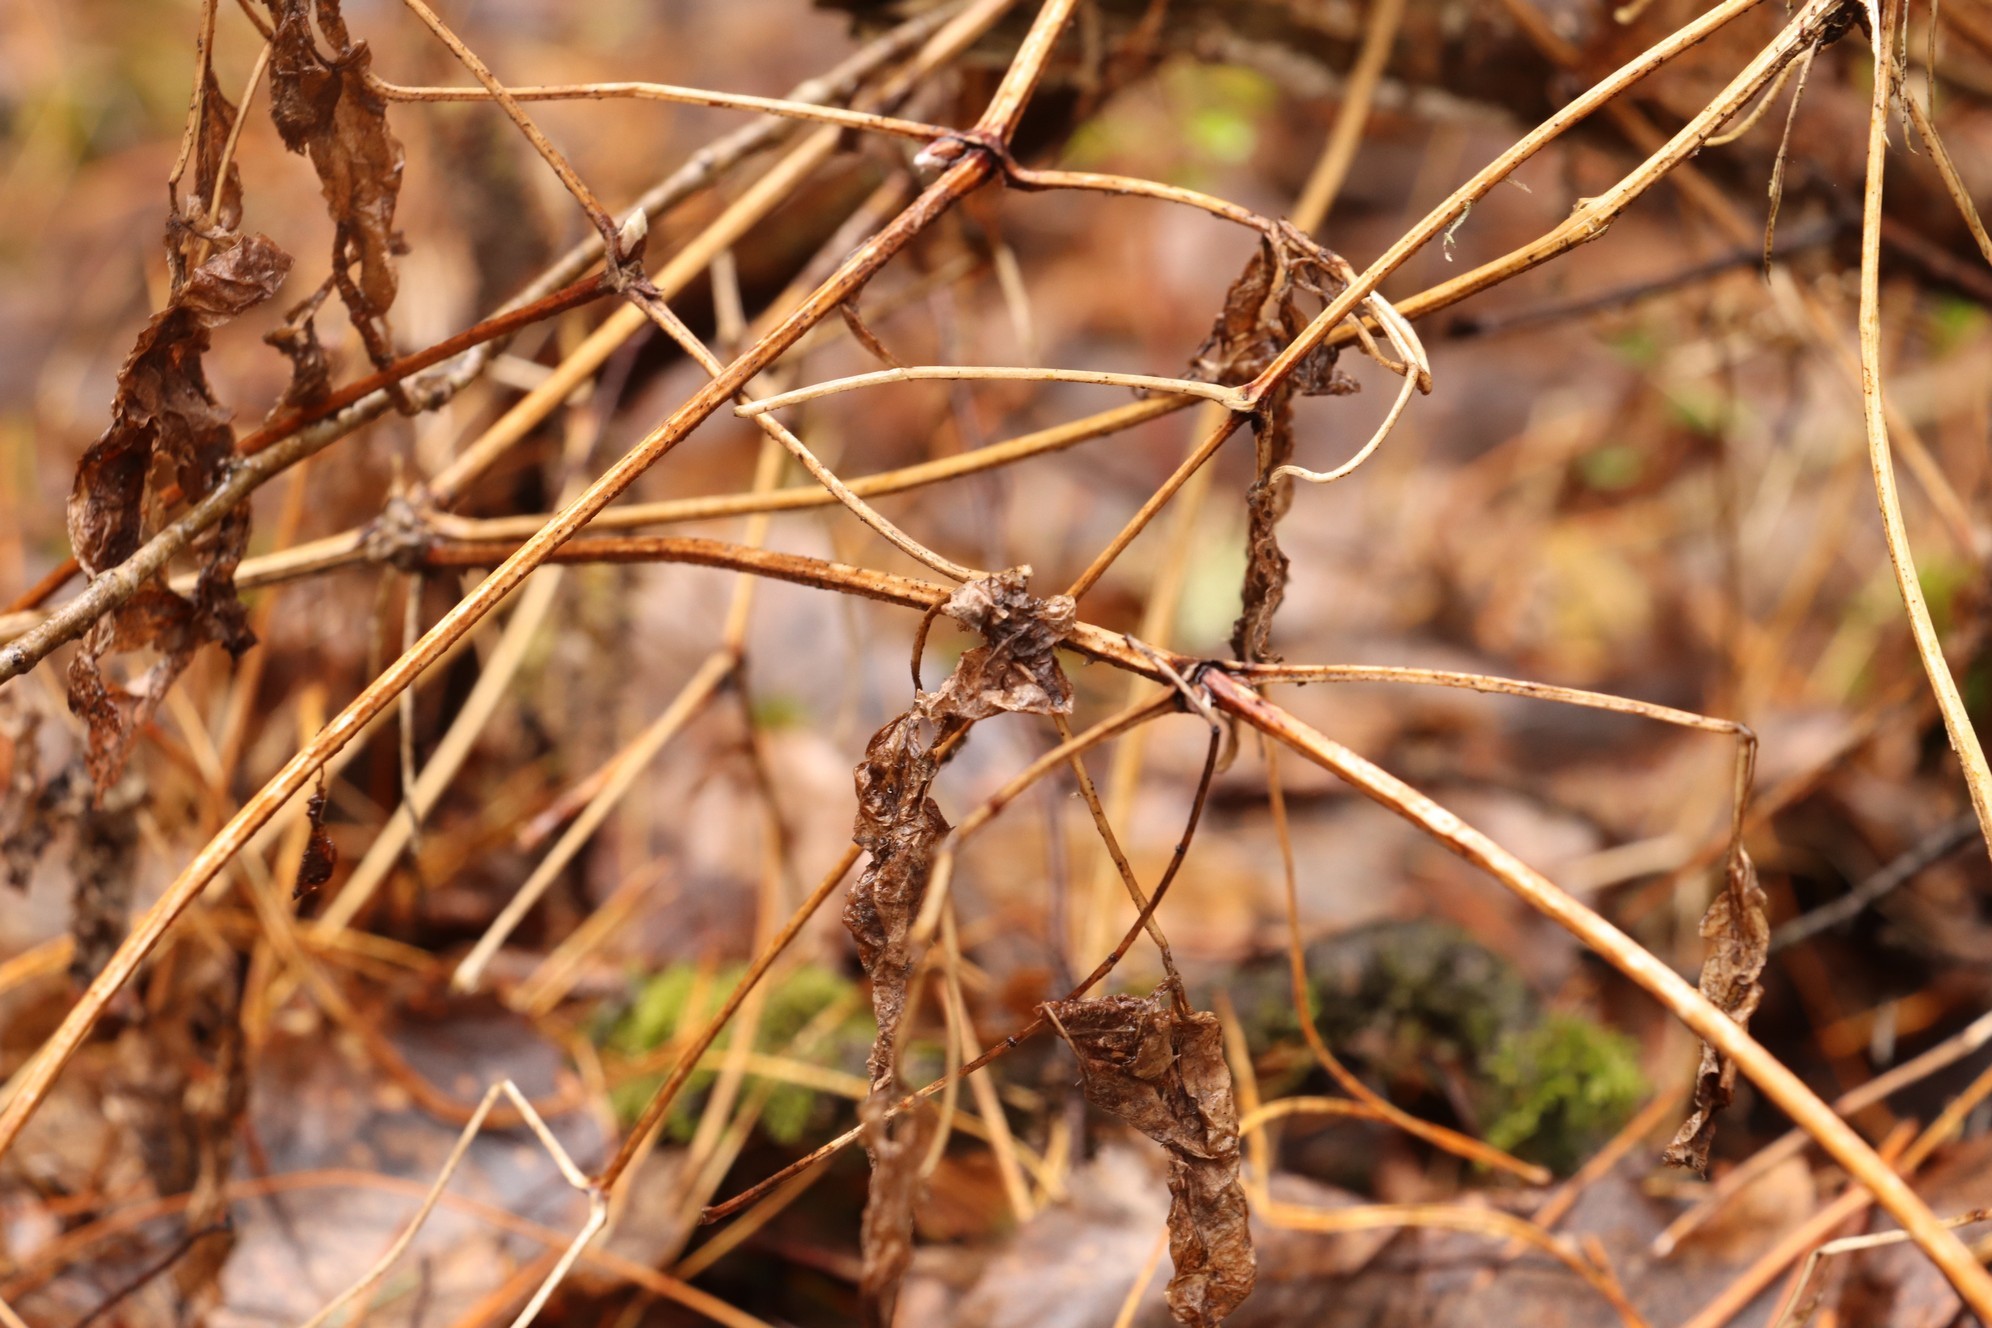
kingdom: Plantae
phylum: Tracheophyta
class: Magnoliopsida
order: Ranunculales
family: Ranunculaceae
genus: Clematis
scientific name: Clematis sibirica
